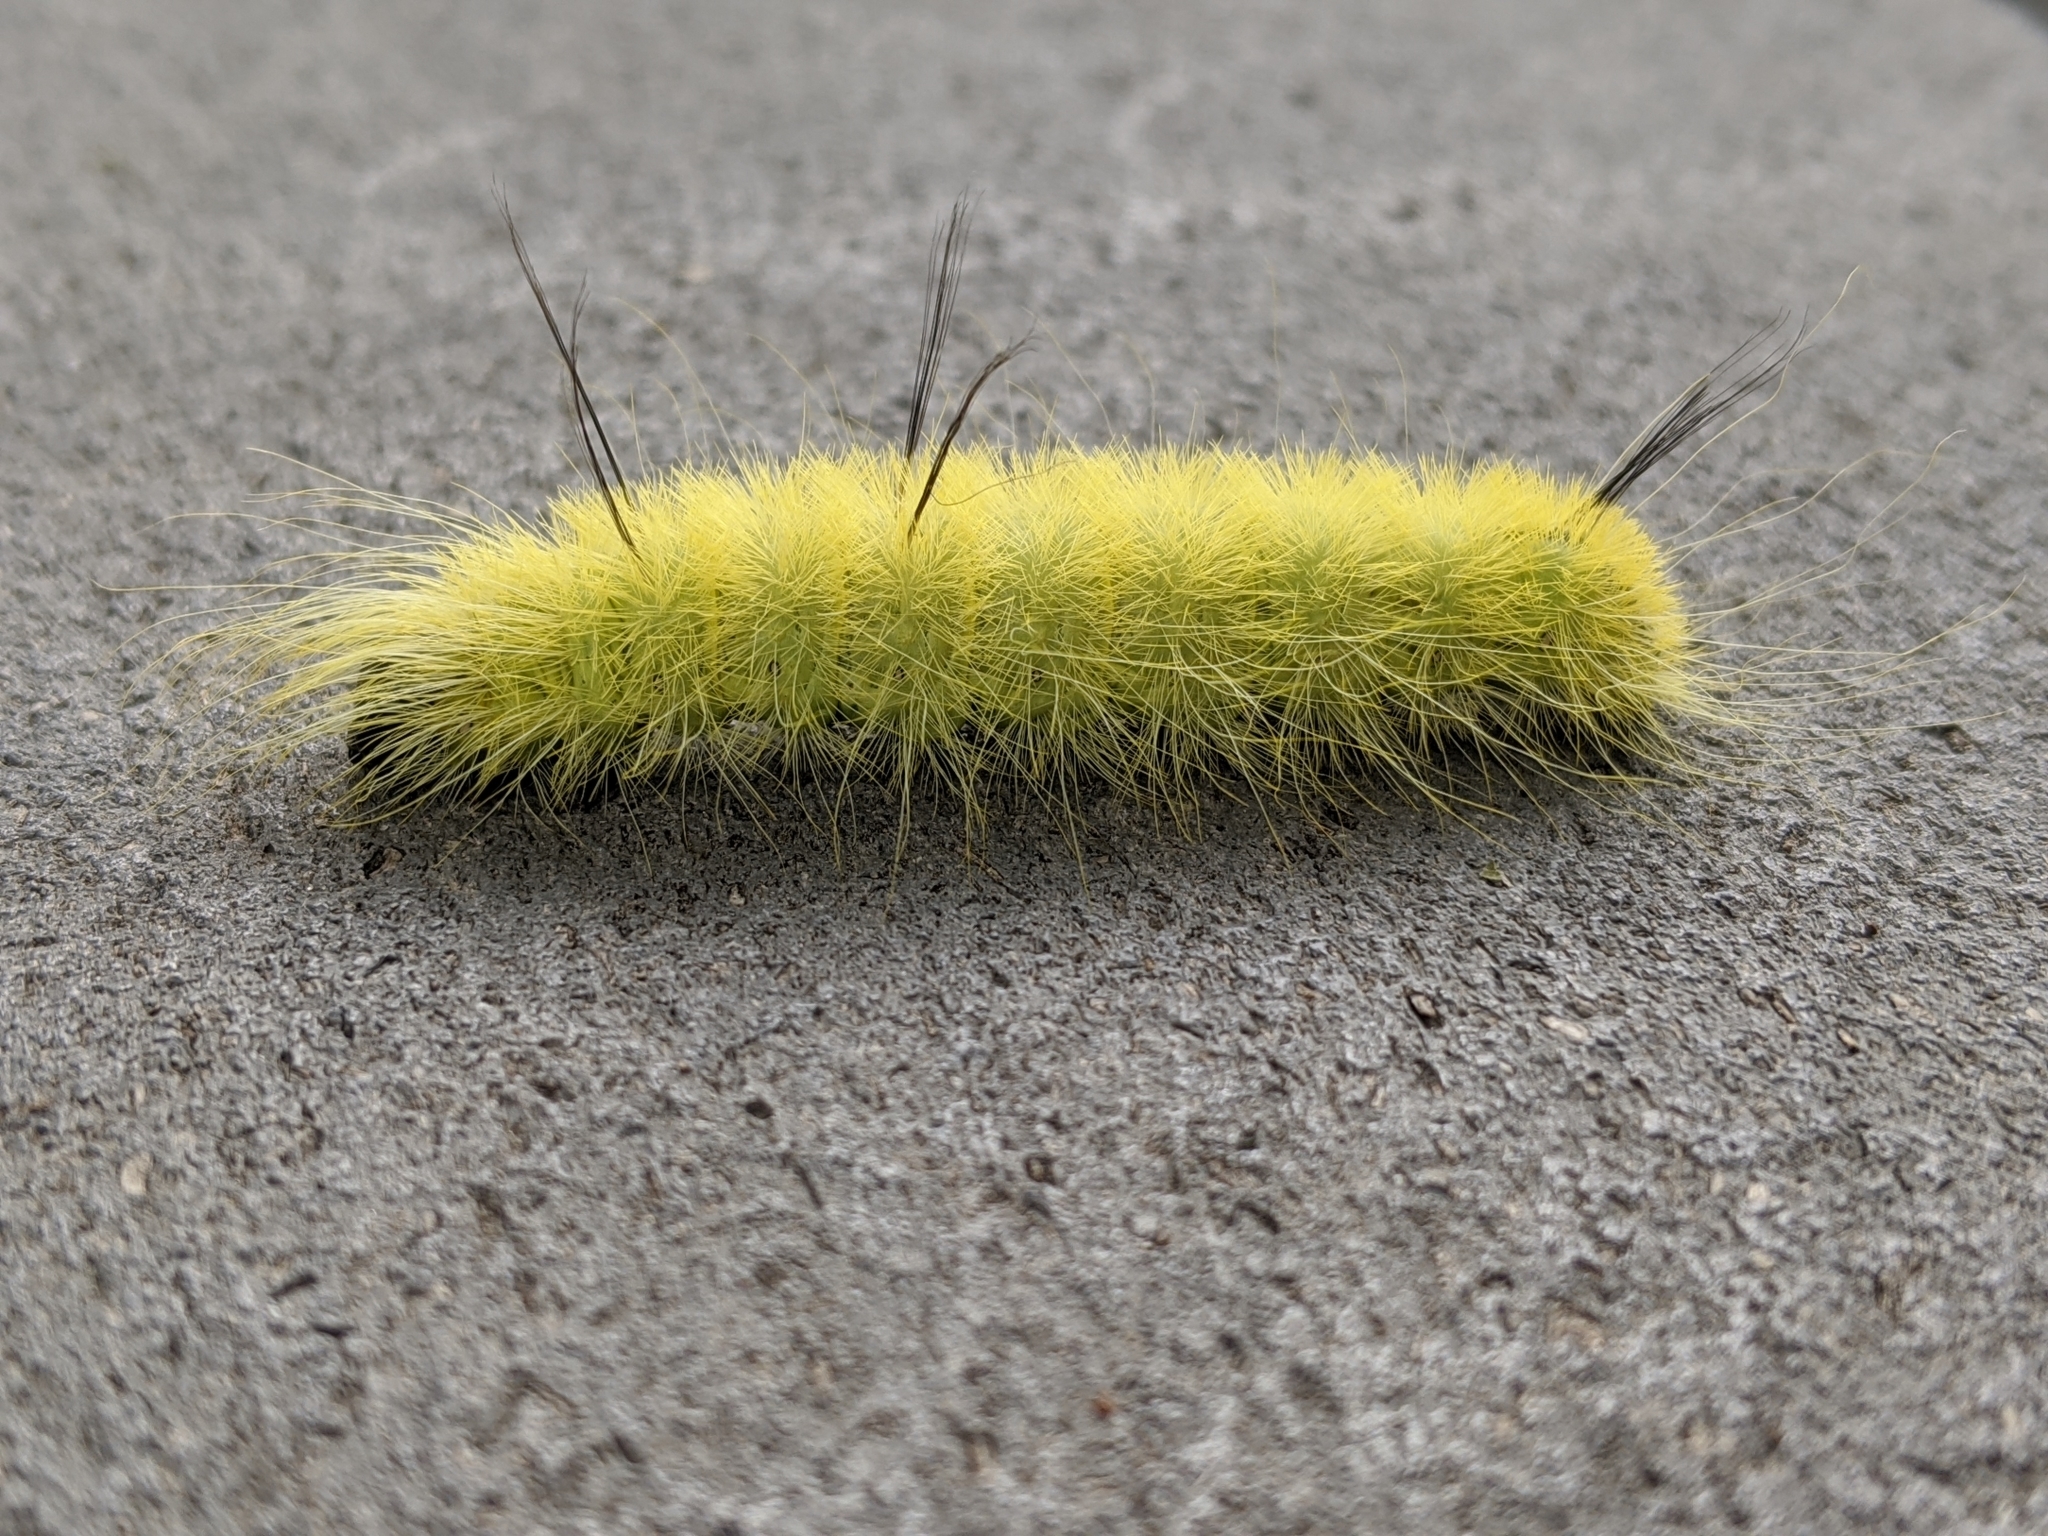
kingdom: Animalia
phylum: Arthropoda
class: Insecta
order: Lepidoptera
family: Noctuidae
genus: Acronicta
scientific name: Acronicta americana
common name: American dagger
